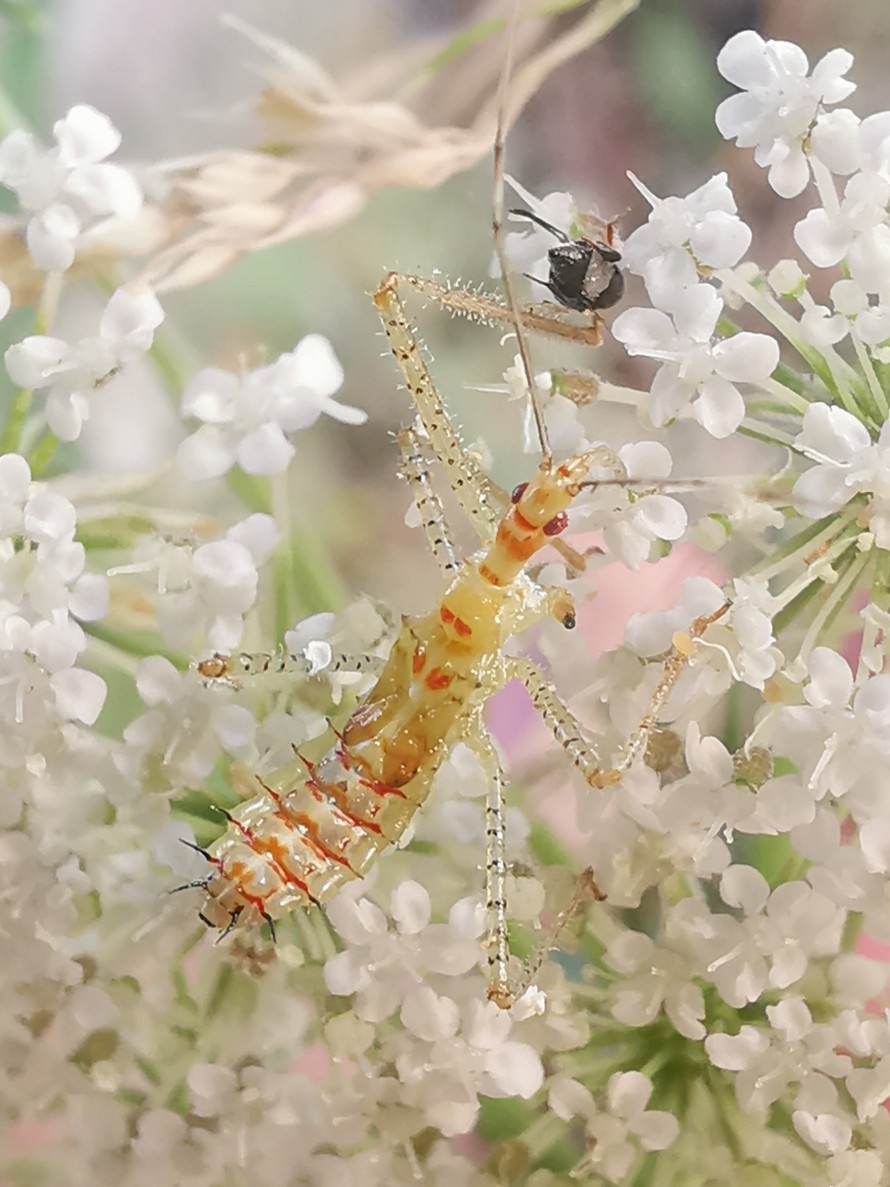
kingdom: Animalia
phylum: Arthropoda
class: Insecta
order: Hemiptera
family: Reduviidae
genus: Zelus
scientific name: Zelus renardii
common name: Assassin bug
